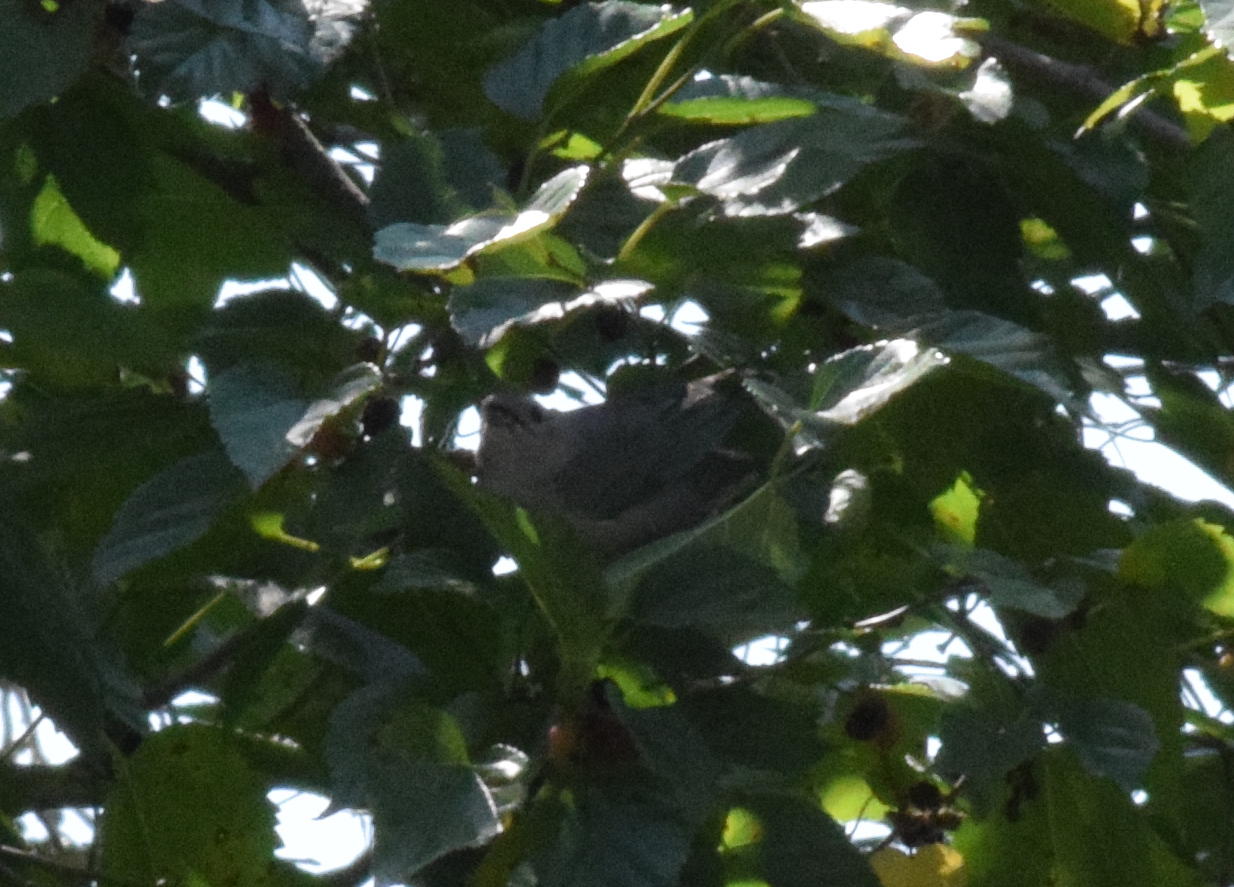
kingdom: Animalia
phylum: Chordata
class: Aves
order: Passeriformes
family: Thraupidae
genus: Thraupis
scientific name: Thraupis sayaca
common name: Sayaca tanager
